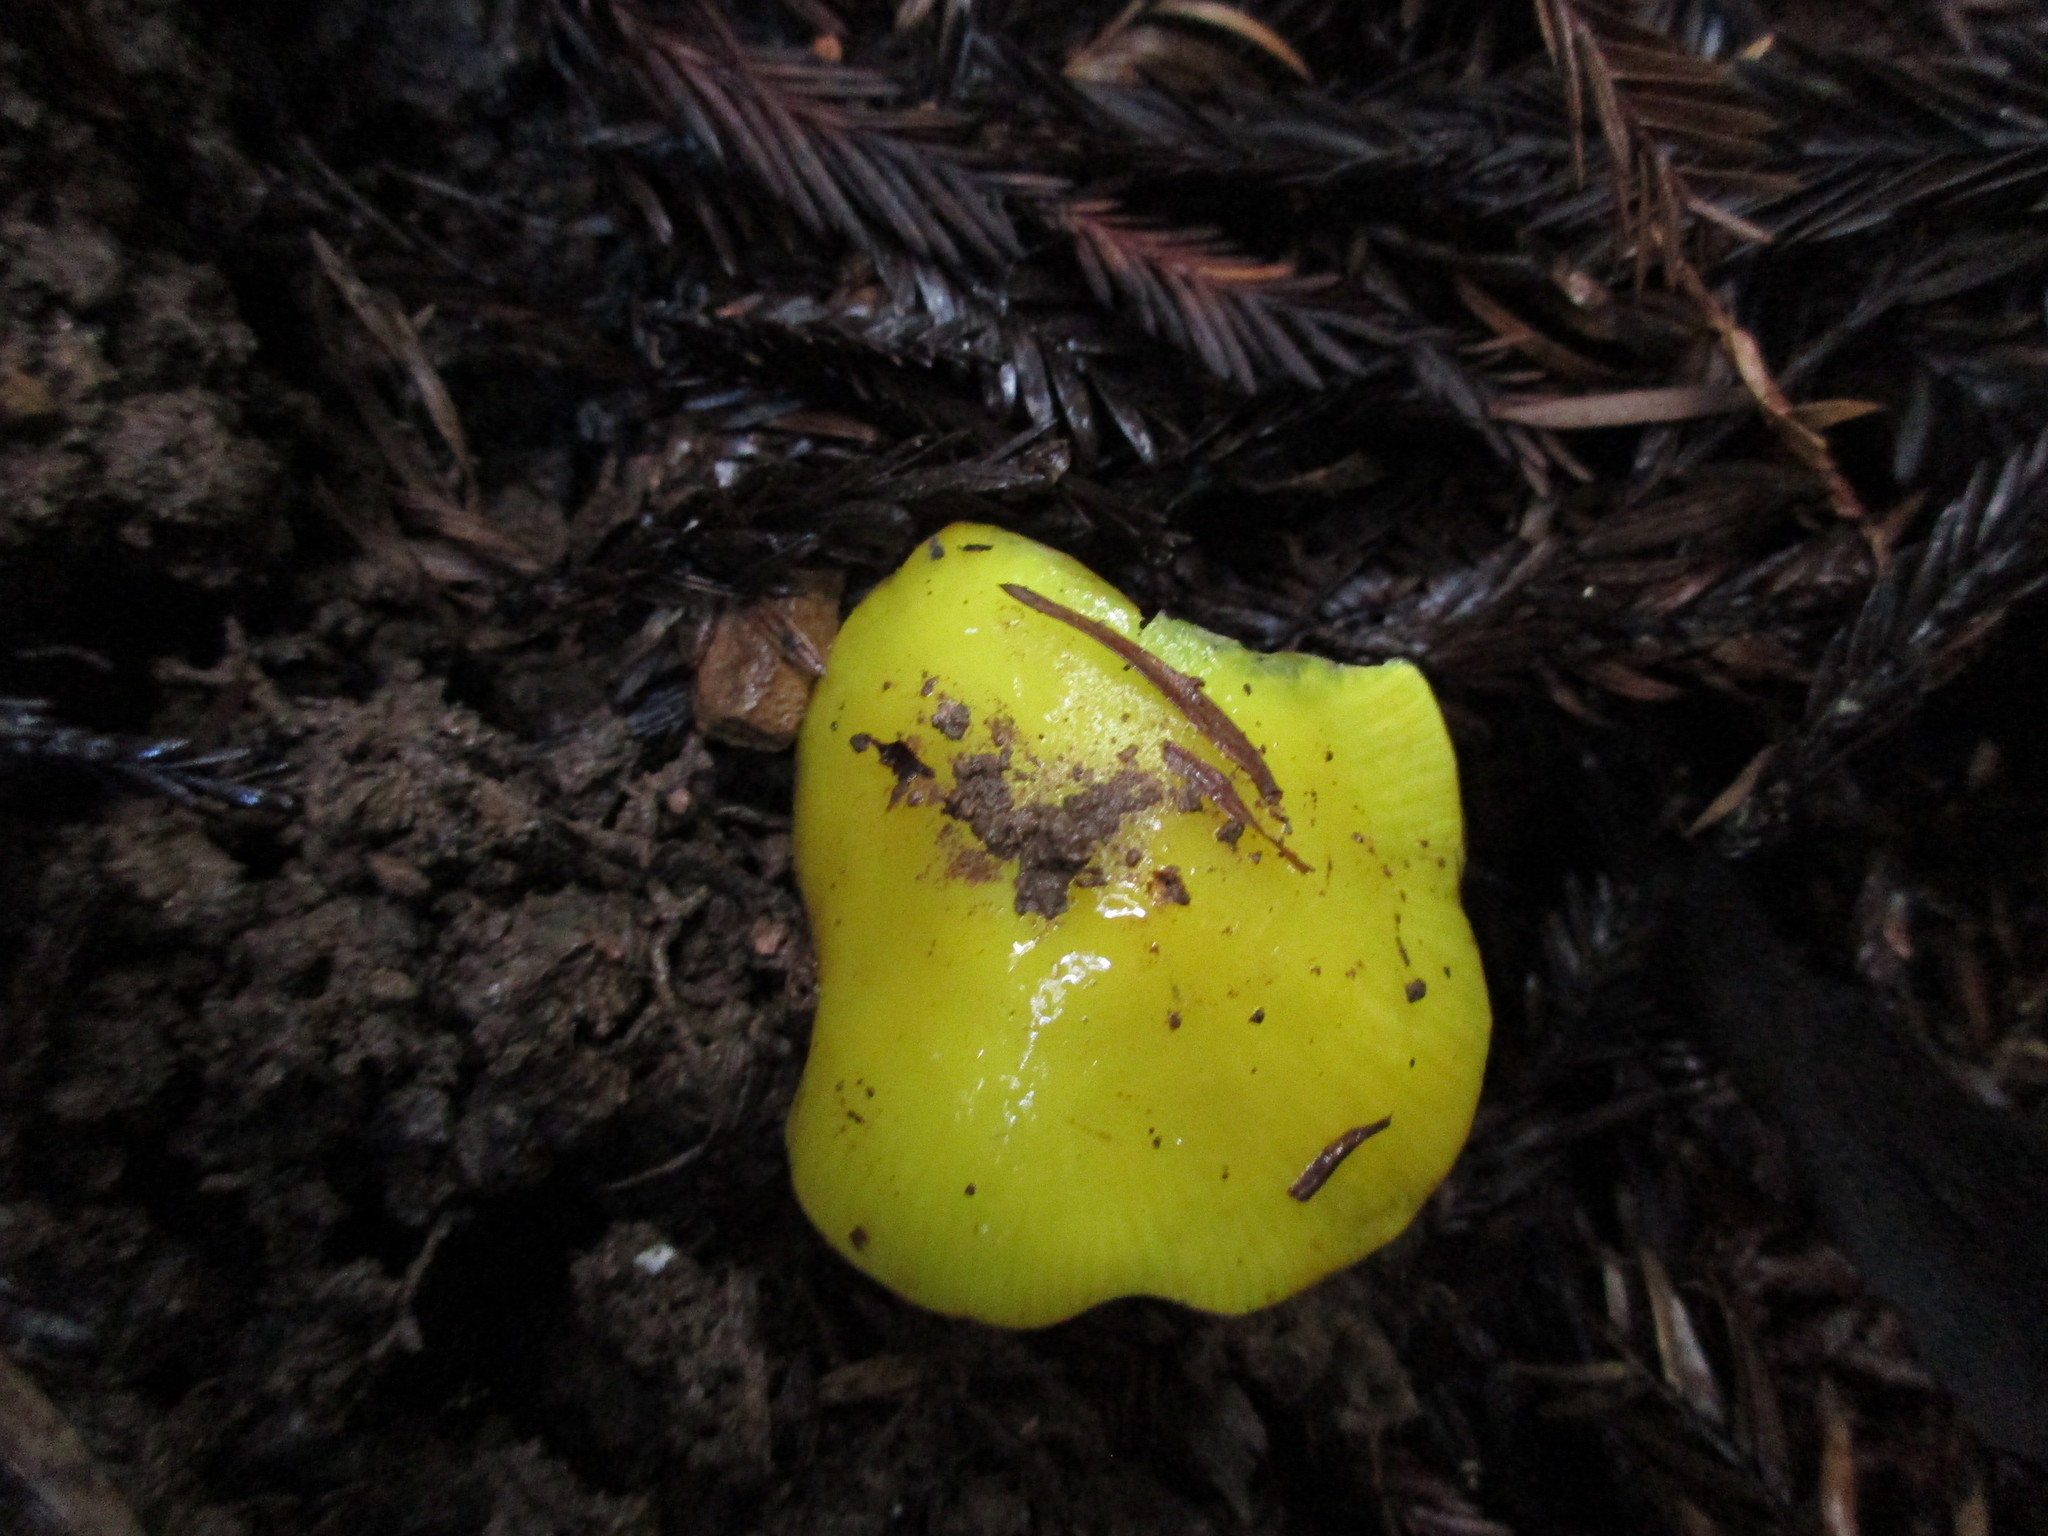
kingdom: Fungi
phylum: Basidiomycota
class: Agaricomycetes
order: Agaricales
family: Hygrophoraceae
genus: Hygrocybe
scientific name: Hygrocybe flavescens
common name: Golden waxy cap
